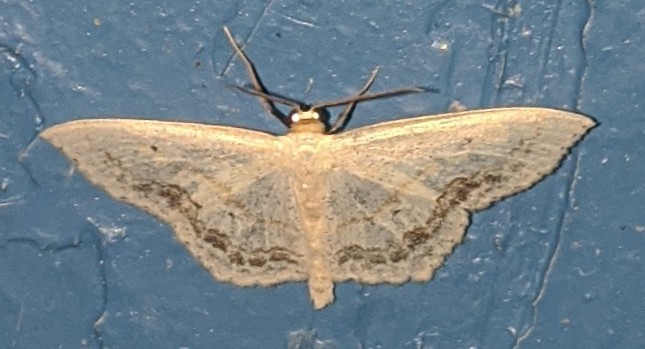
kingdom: Animalia
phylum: Arthropoda
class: Insecta
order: Lepidoptera
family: Geometridae
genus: Scopula
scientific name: Scopula limboundata
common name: Large lace border
